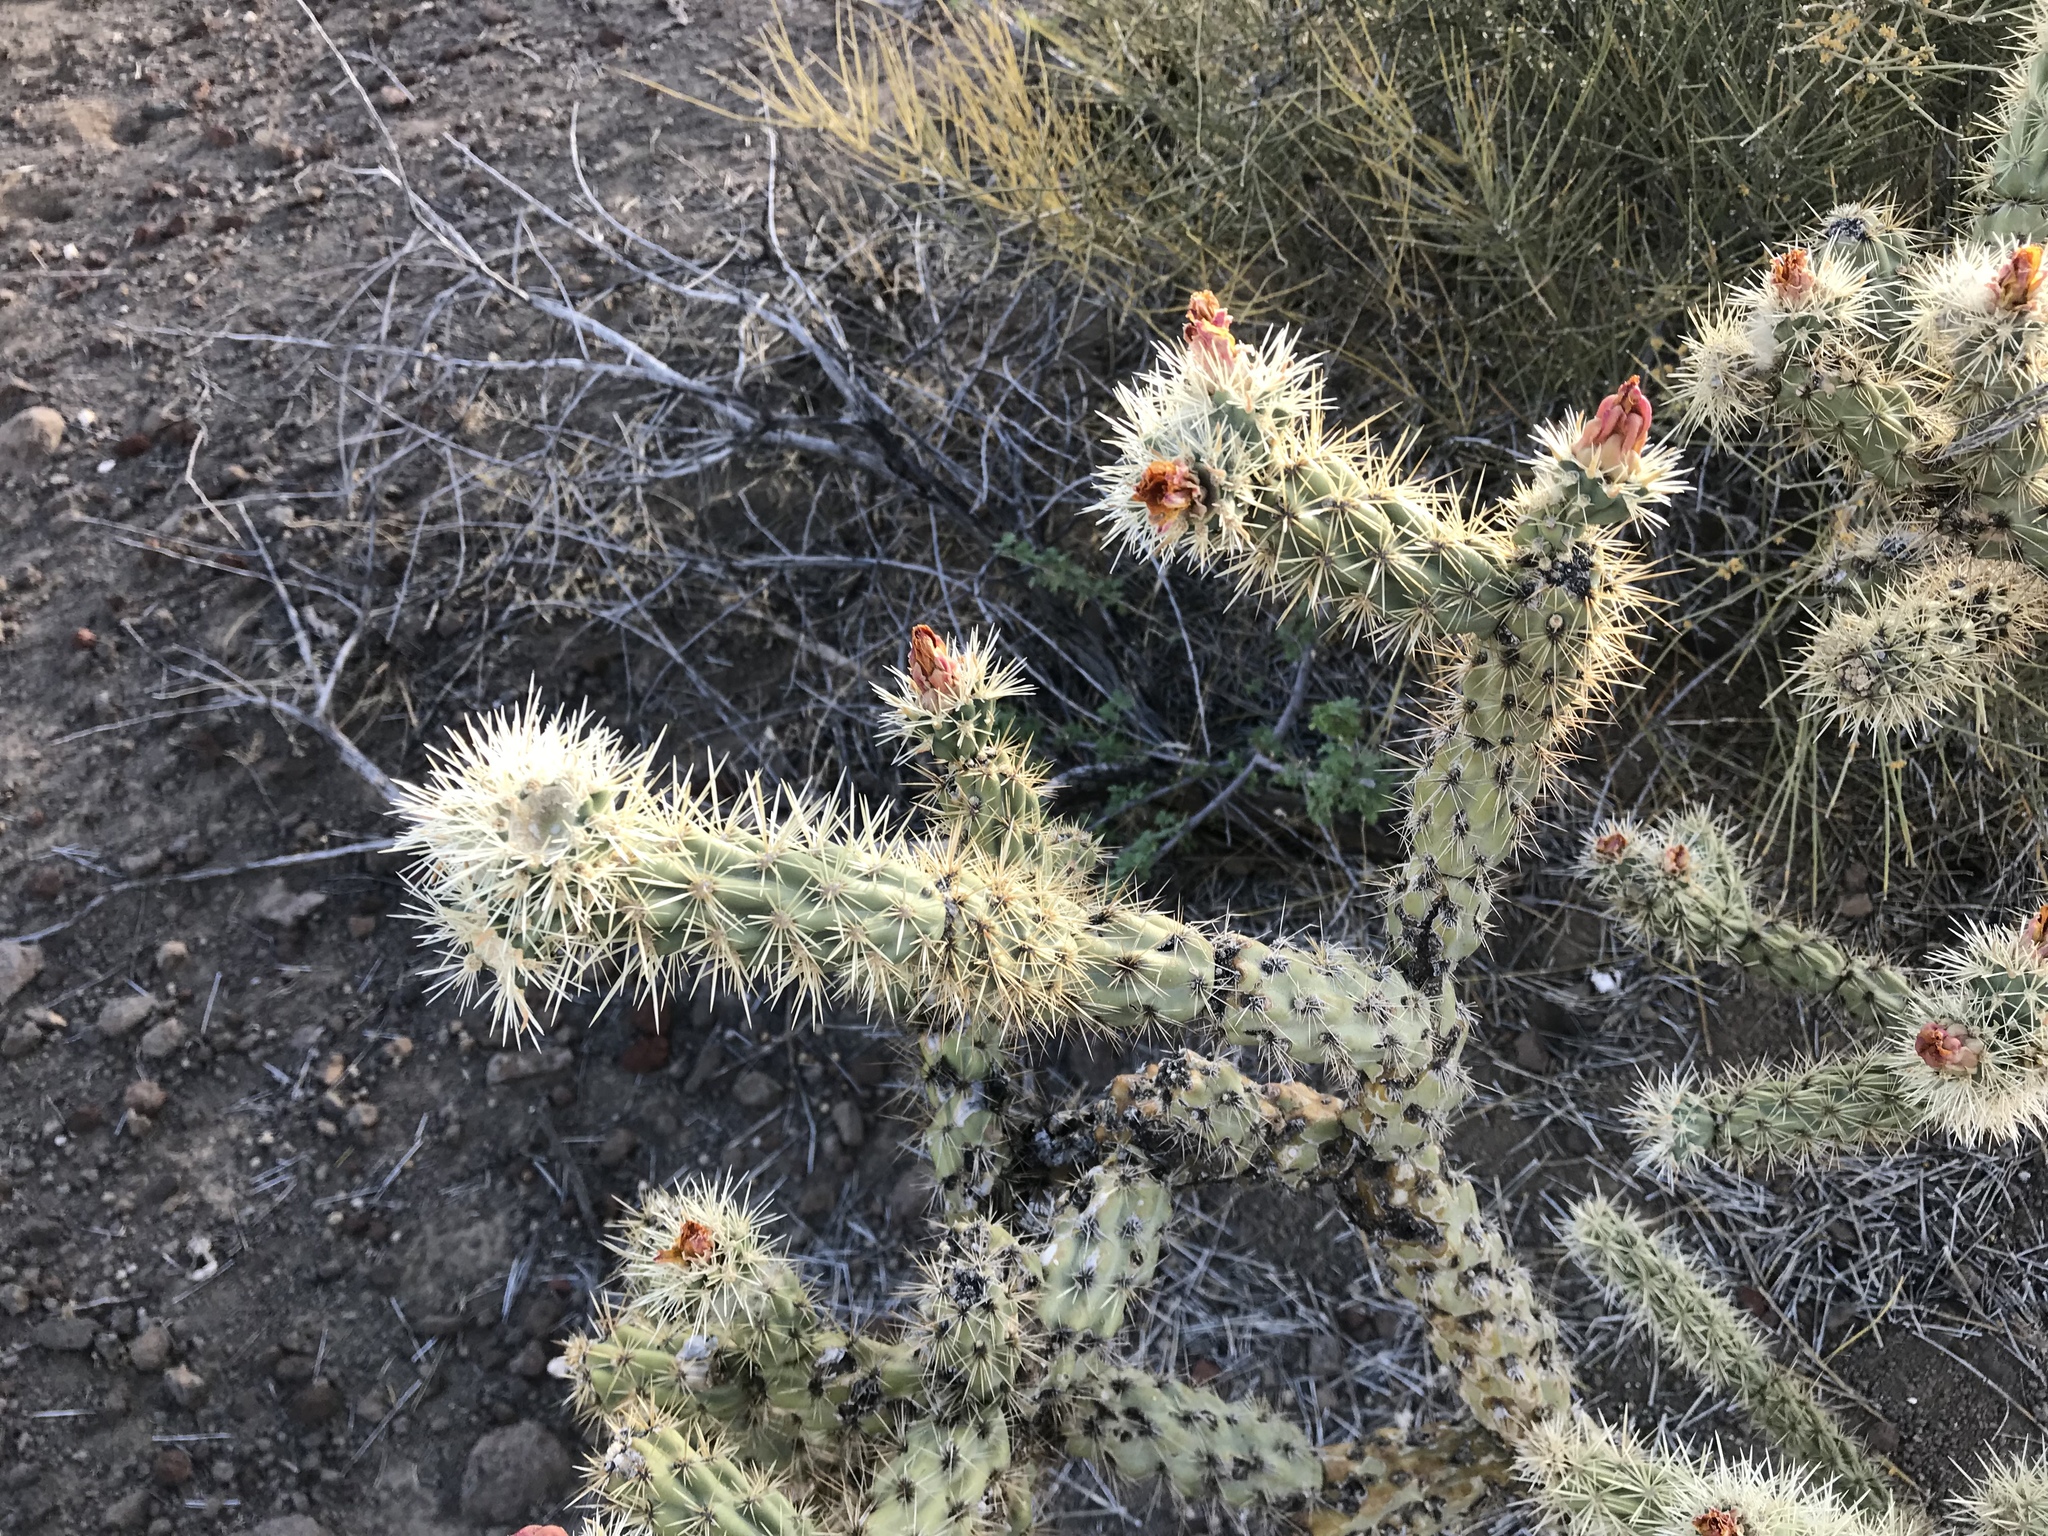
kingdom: Plantae
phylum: Tracheophyta
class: Magnoliopsida
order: Caryophyllales
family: Cactaceae
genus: Cylindropuntia
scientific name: Cylindropuntia acanthocarpa
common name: Buckhorn cholla
